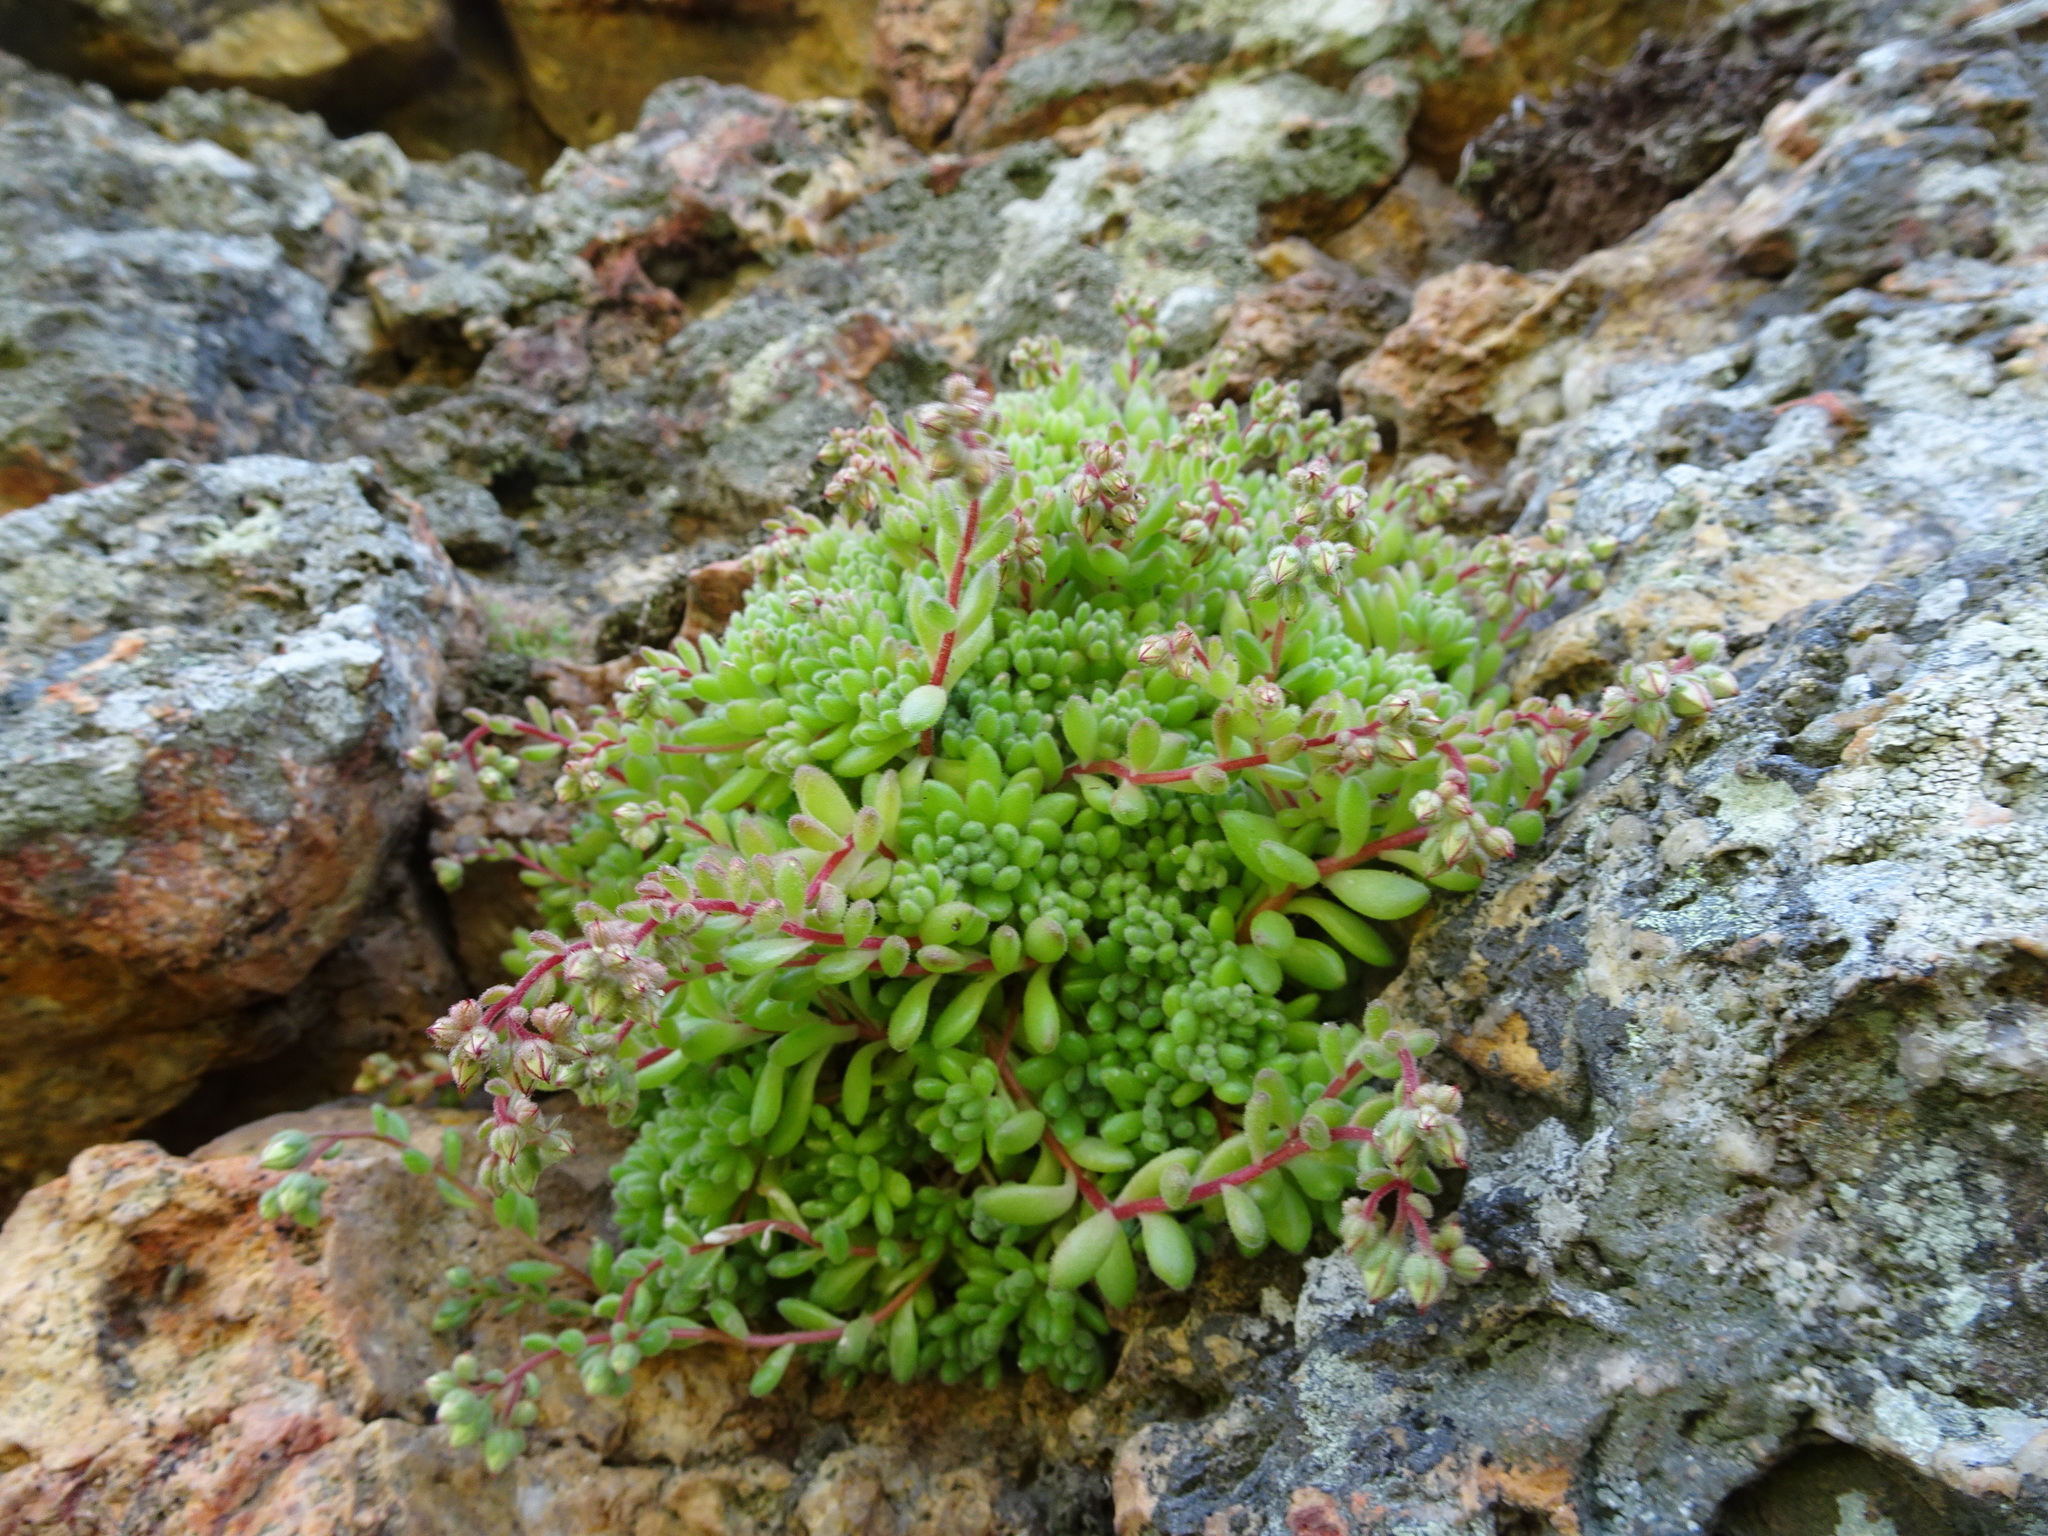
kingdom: Plantae
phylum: Tracheophyta
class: Magnoliopsida
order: Saxifragales
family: Crassulaceae
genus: Sedum
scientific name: Sedum hirsutum
